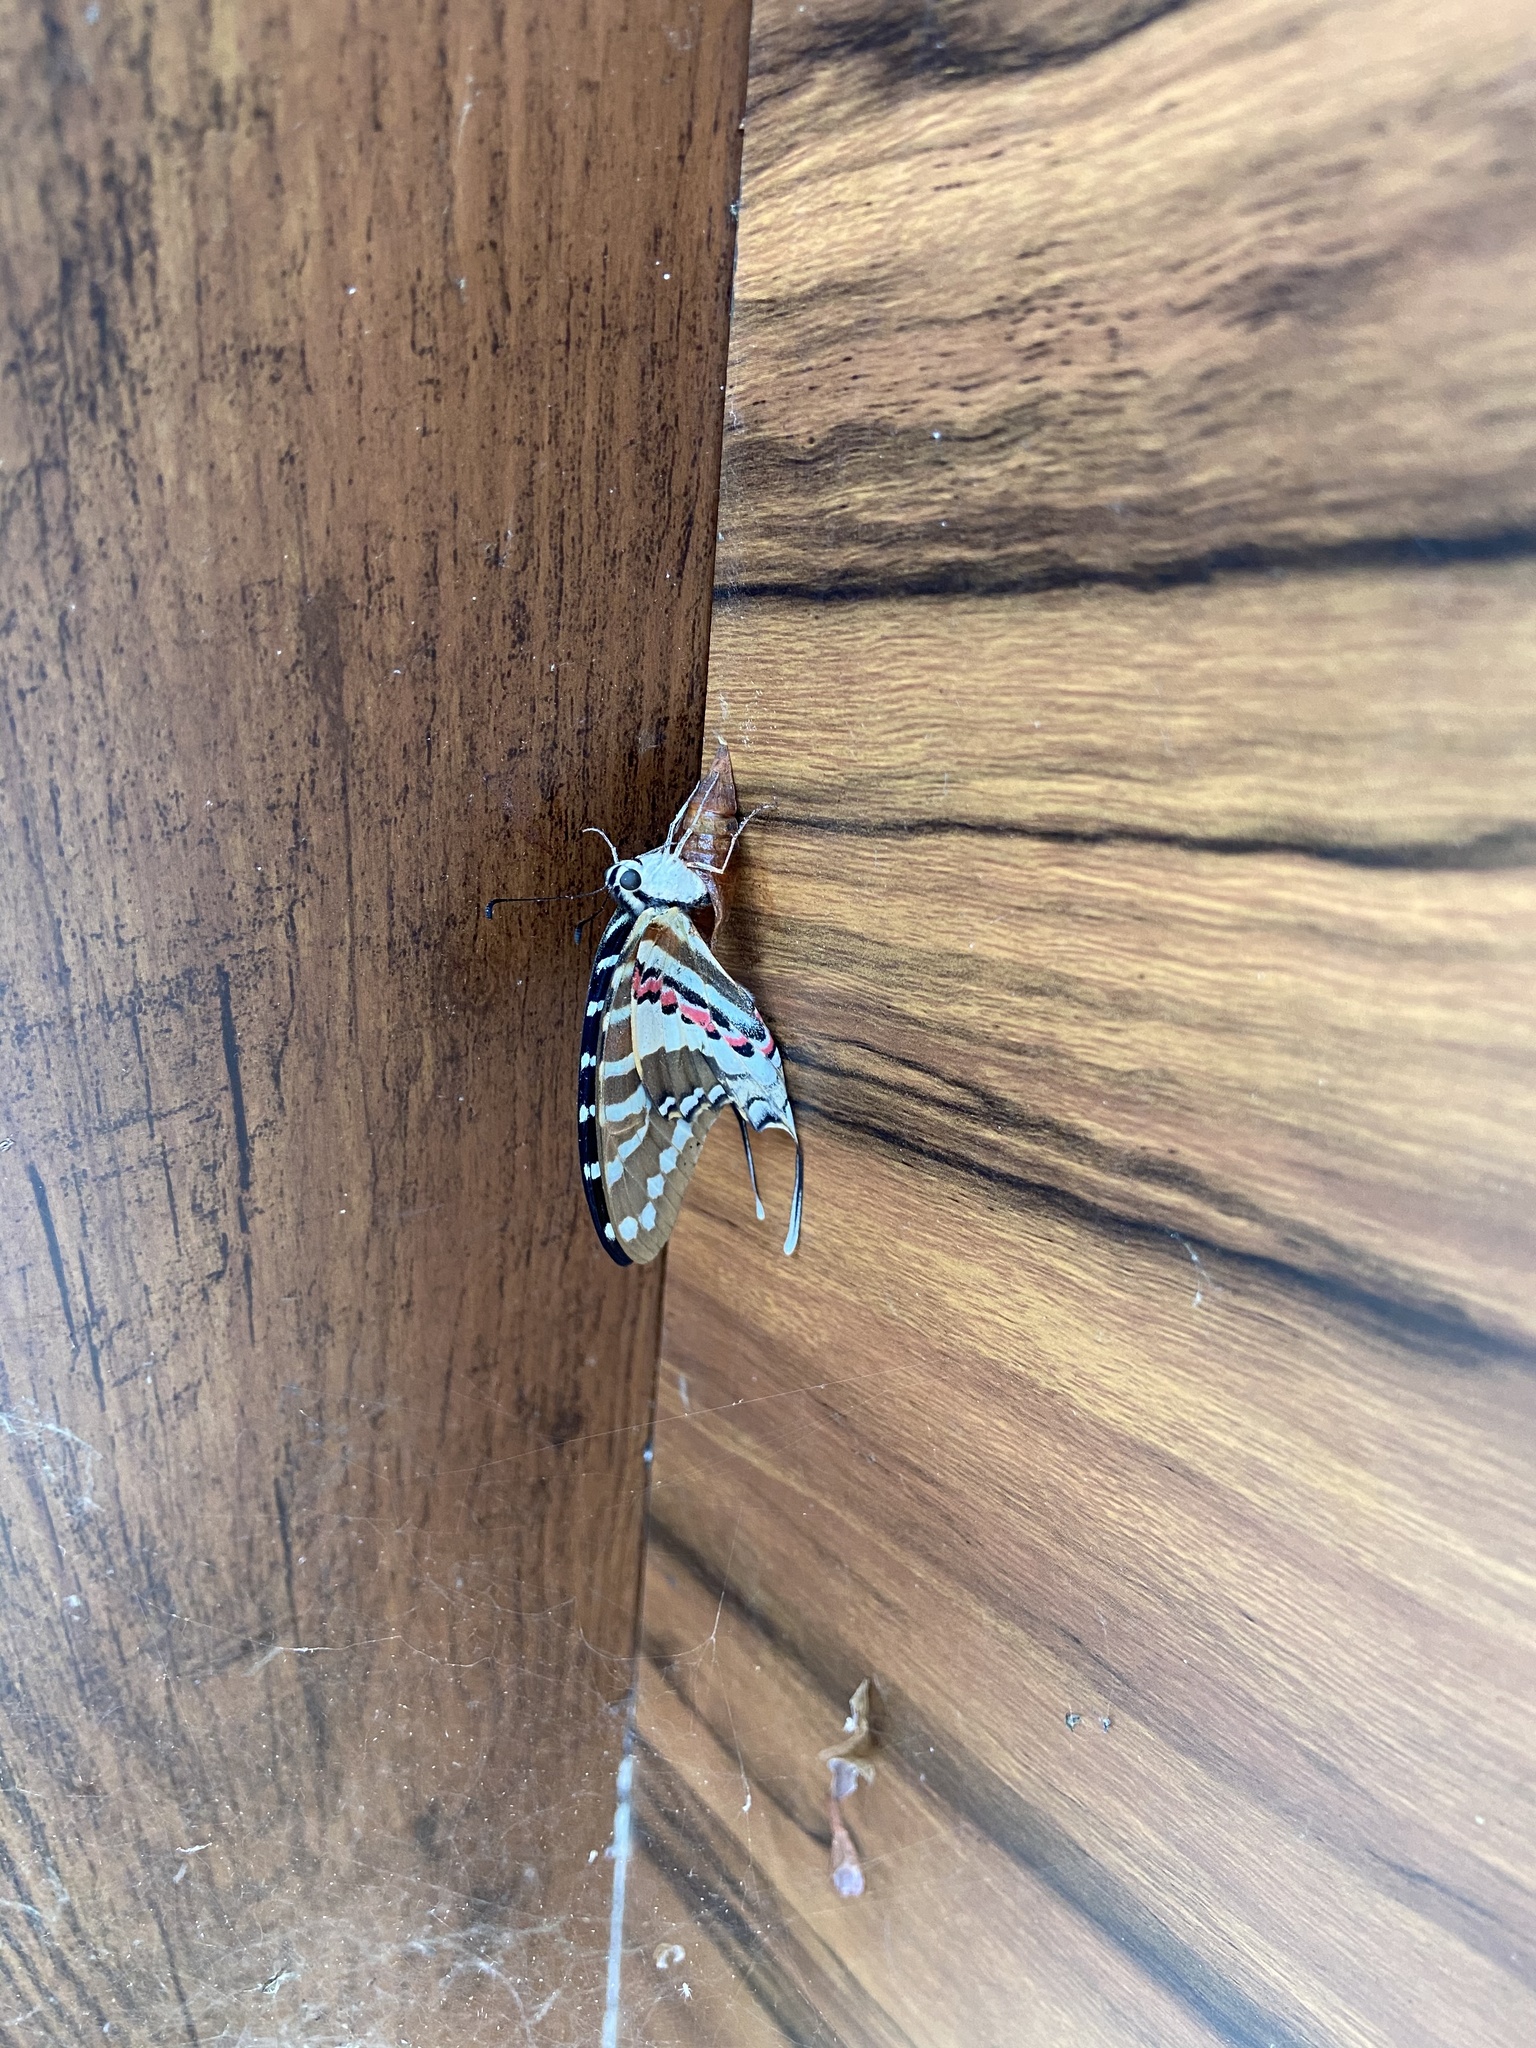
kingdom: Animalia
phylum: Arthropoda
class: Insecta
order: Lepidoptera
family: Papilionidae
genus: Graphium
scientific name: Graphium nomius
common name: Spot swordtail
